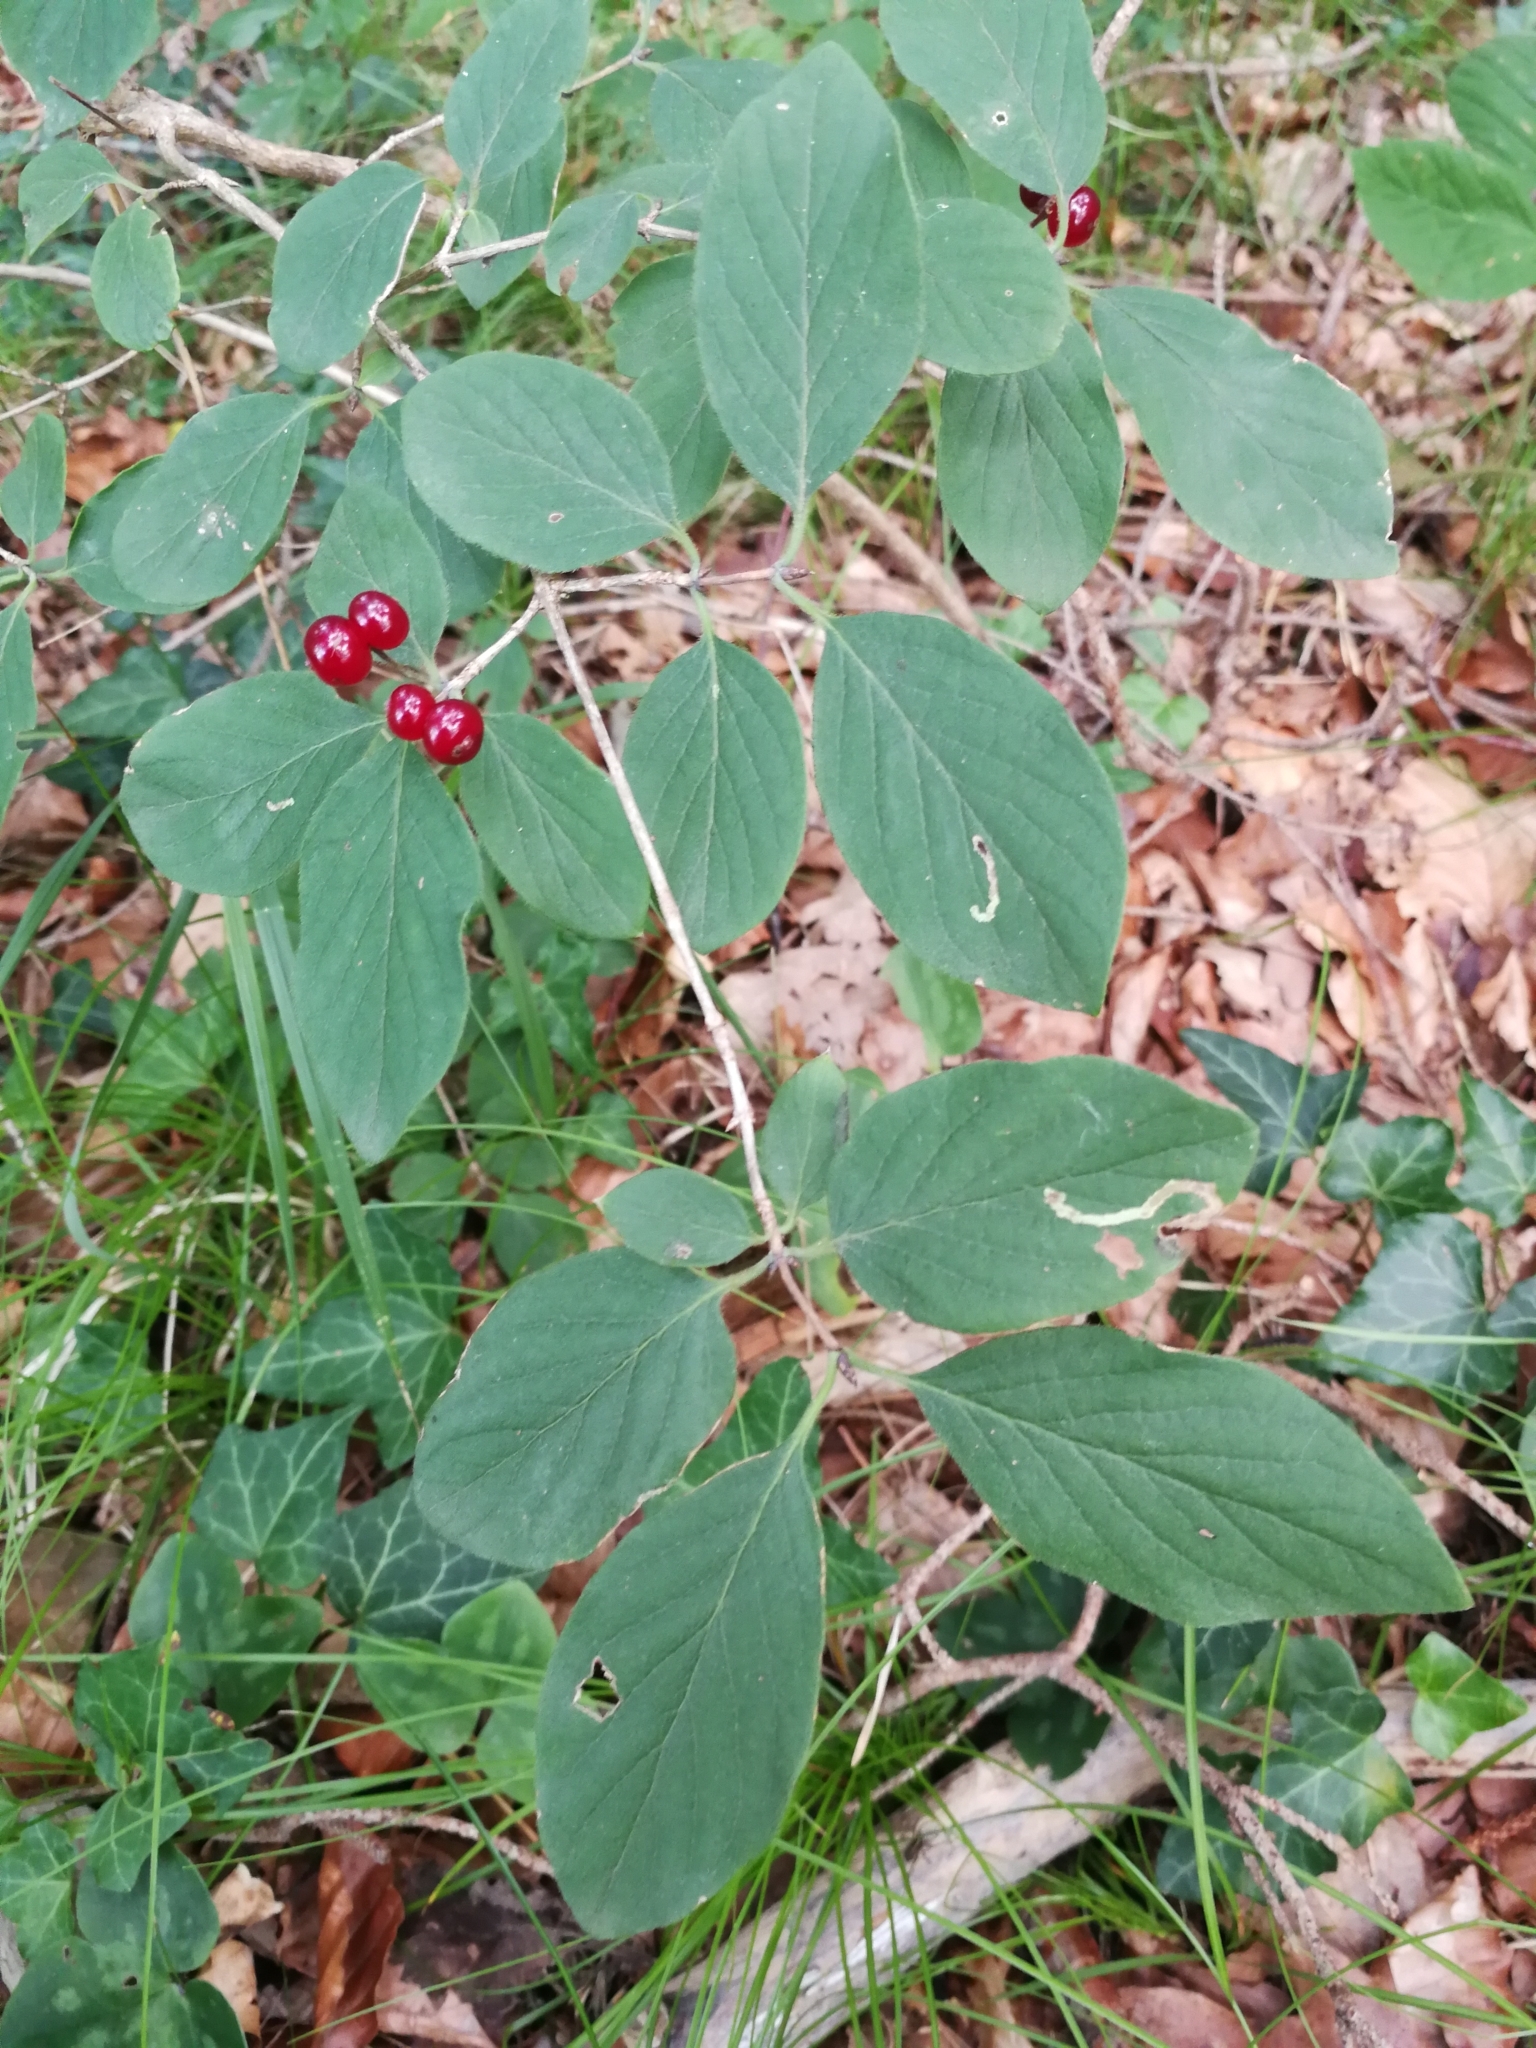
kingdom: Plantae
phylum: Tracheophyta
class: Magnoliopsida
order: Dipsacales
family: Caprifoliaceae
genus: Lonicera
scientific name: Lonicera xylosteum
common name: Fly honeysuckle
